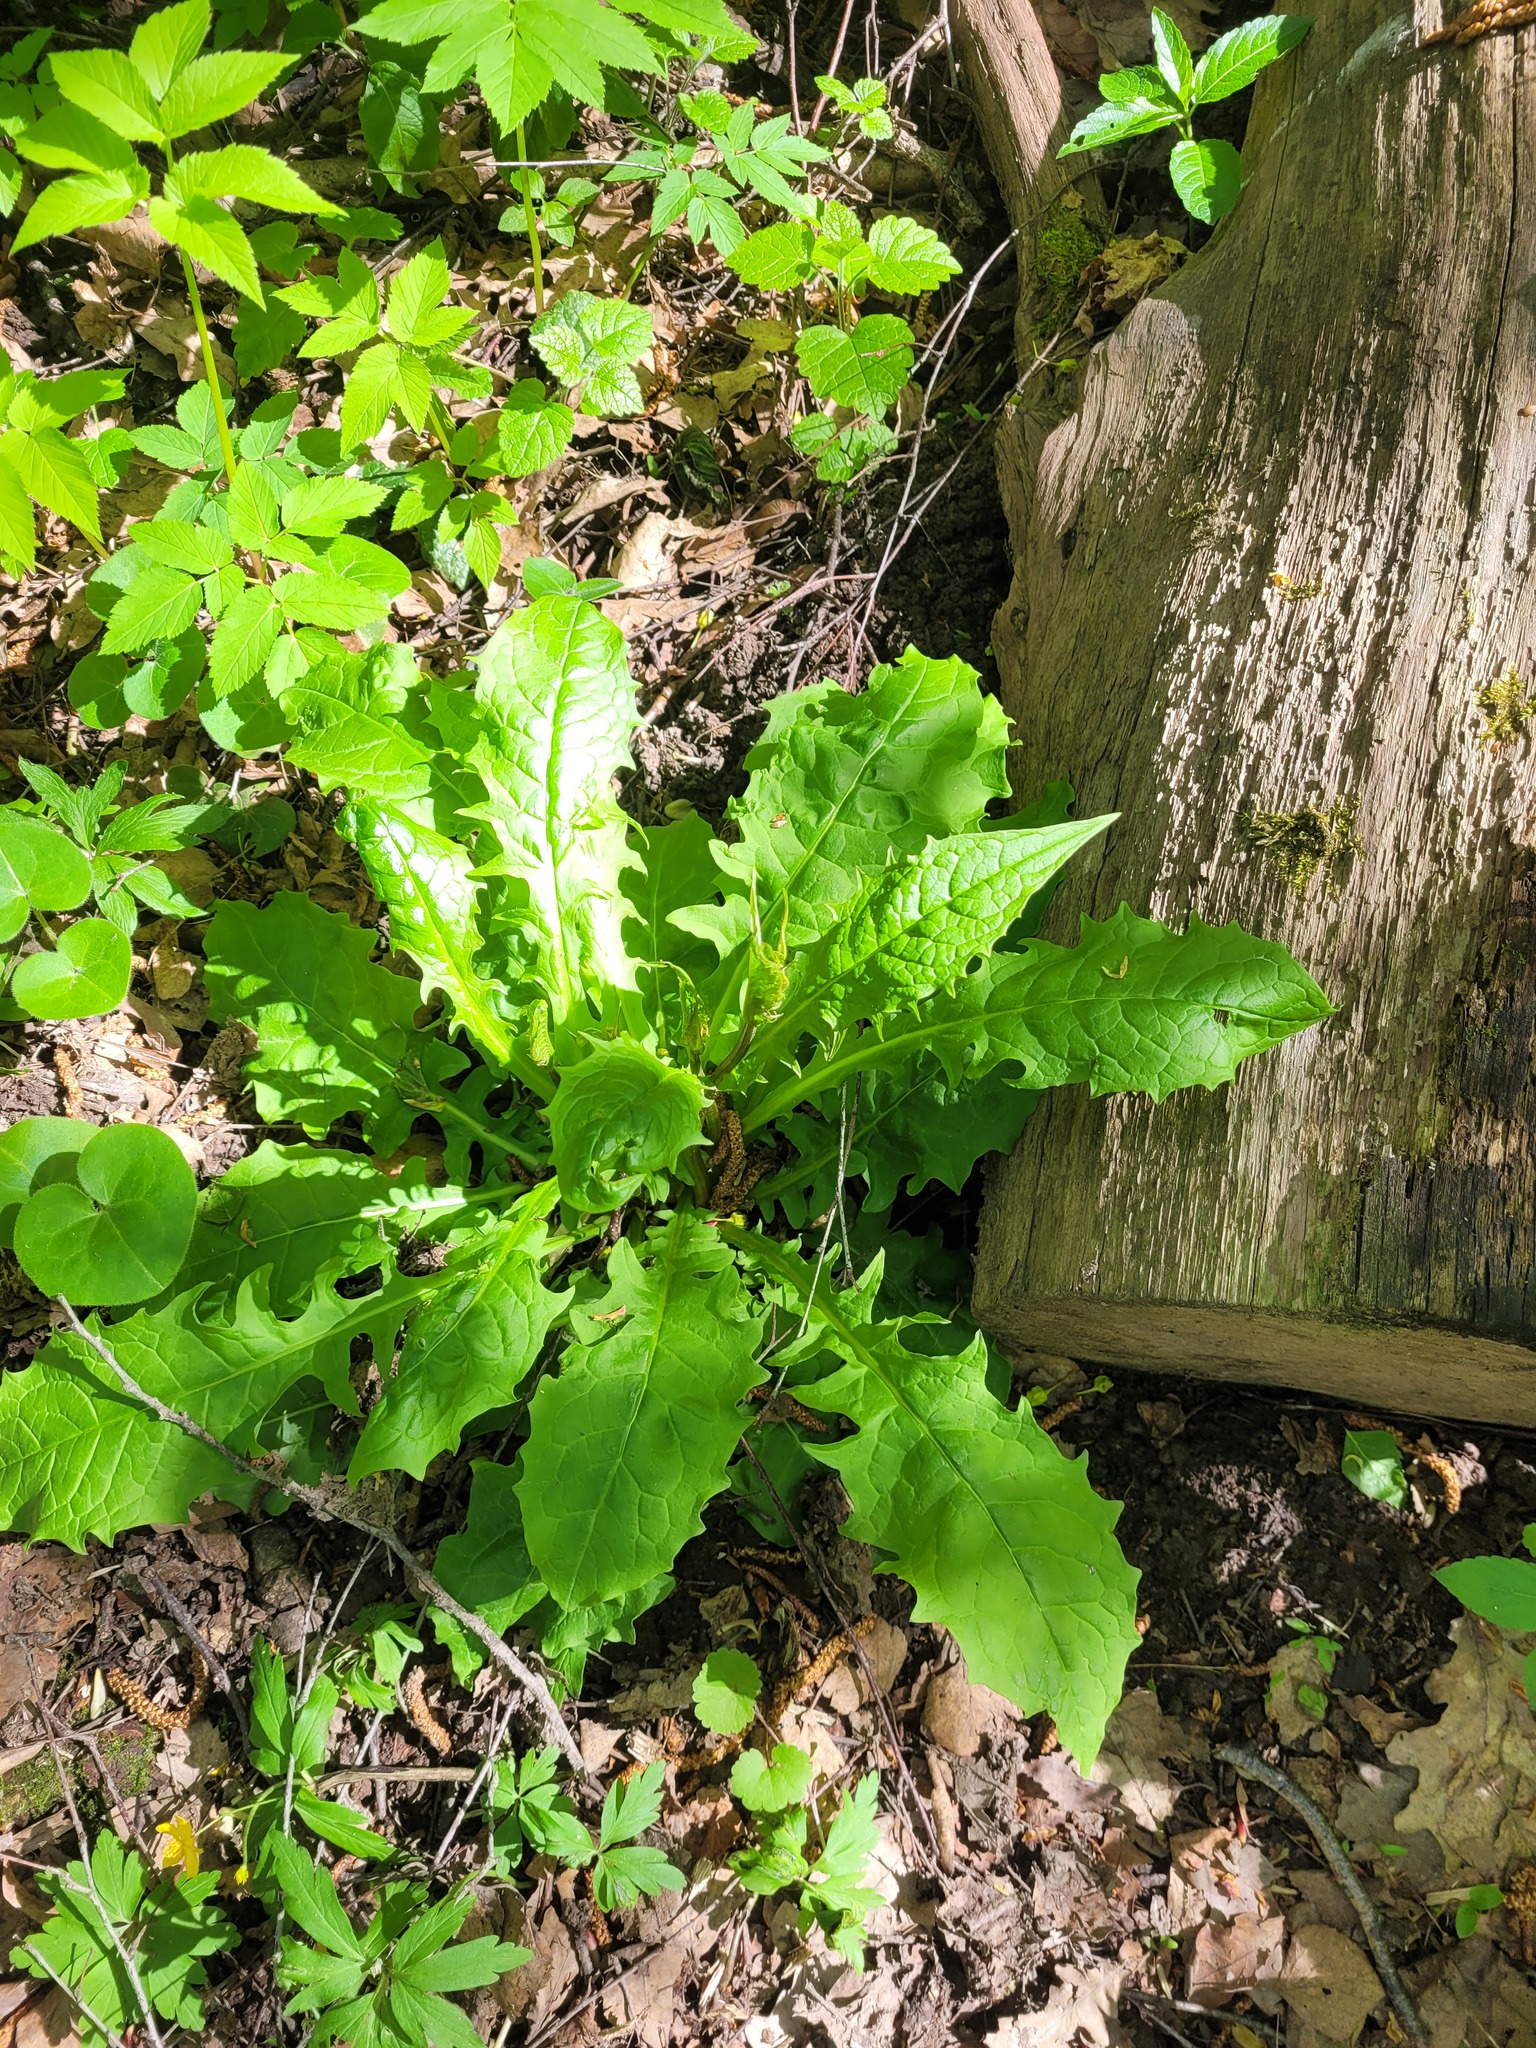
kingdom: Plantae
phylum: Tracheophyta
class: Magnoliopsida
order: Asterales
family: Asteraceae
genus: Crepis
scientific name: Crepis paludosa
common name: Marsh hawk's-beard
